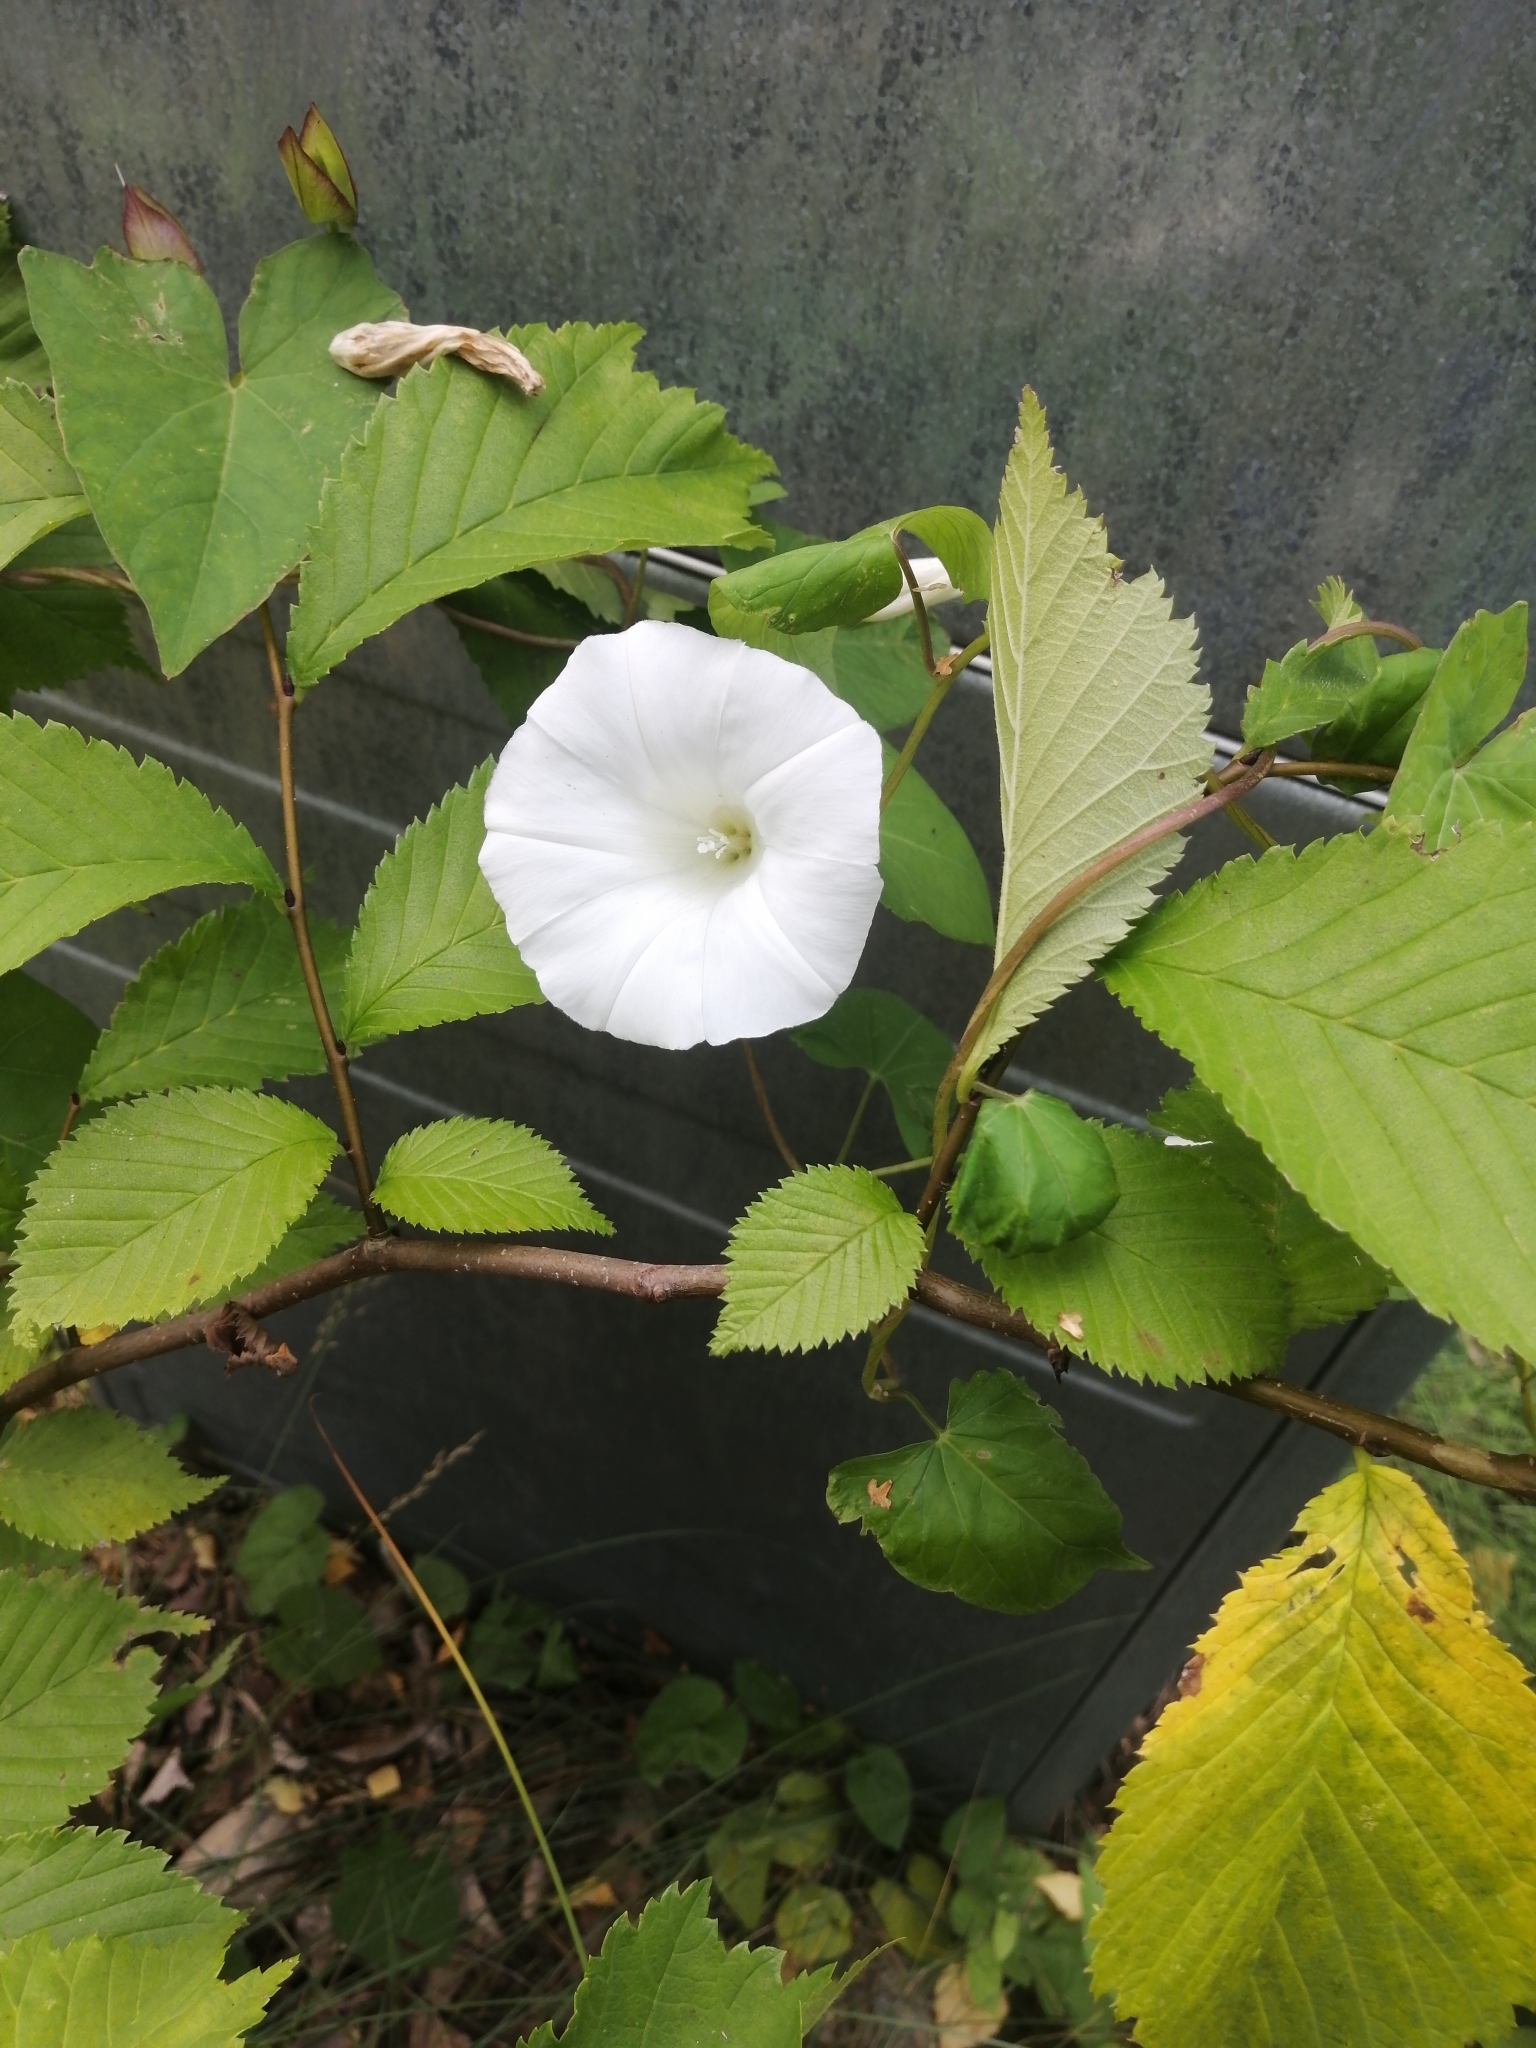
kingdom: Plantae
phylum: Tracheophyta
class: Magnoliopsida
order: Solanales
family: Convolvulaceae
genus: Calystegia
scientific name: Calystegia sepium
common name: Hedge bindweed
